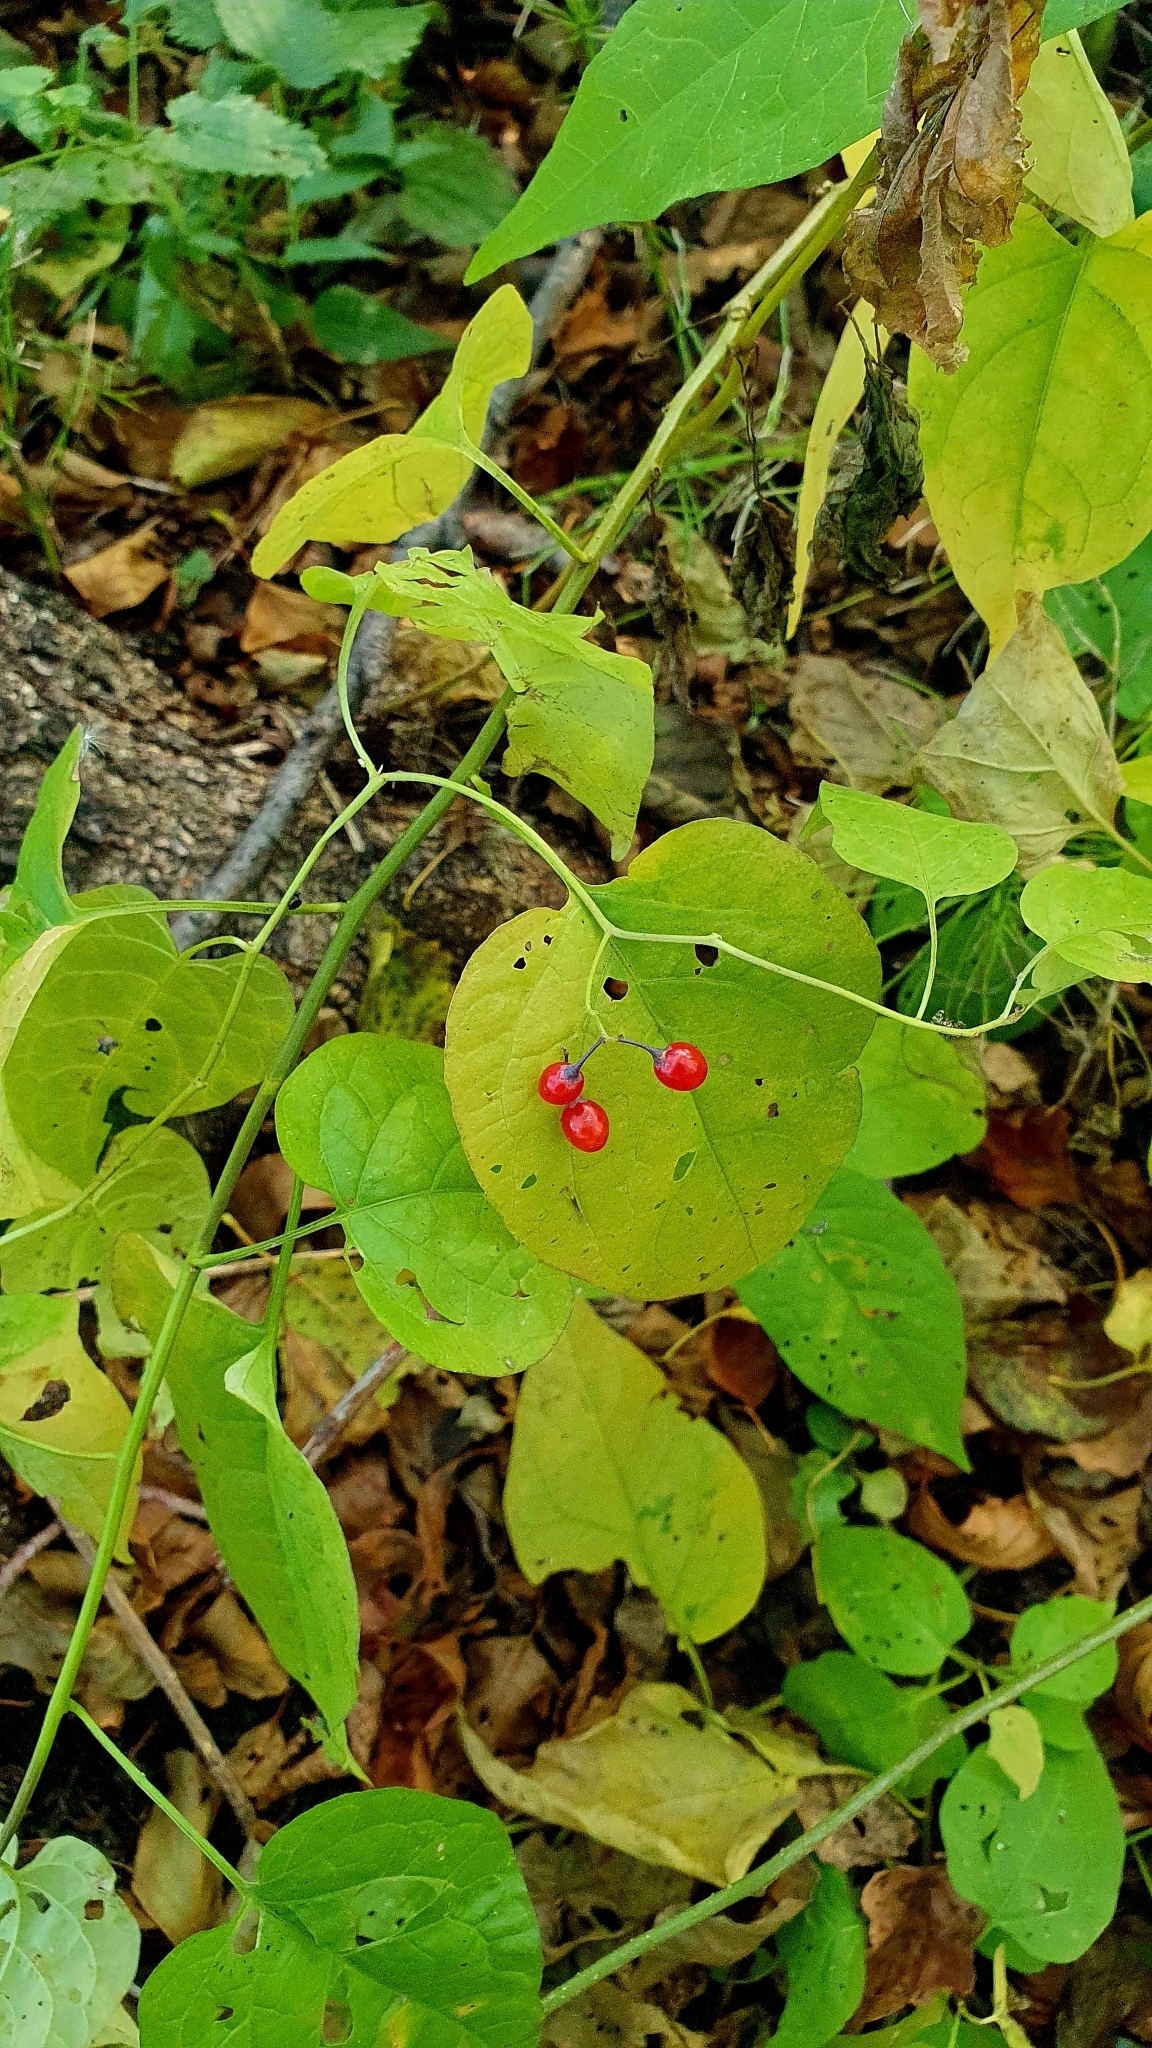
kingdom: Plantae
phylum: Tracheophyta
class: Magnoliopsida
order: Solanales
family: Solanaceae
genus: Solanum
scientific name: Solanum dulcamara
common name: Climbing nightshade
